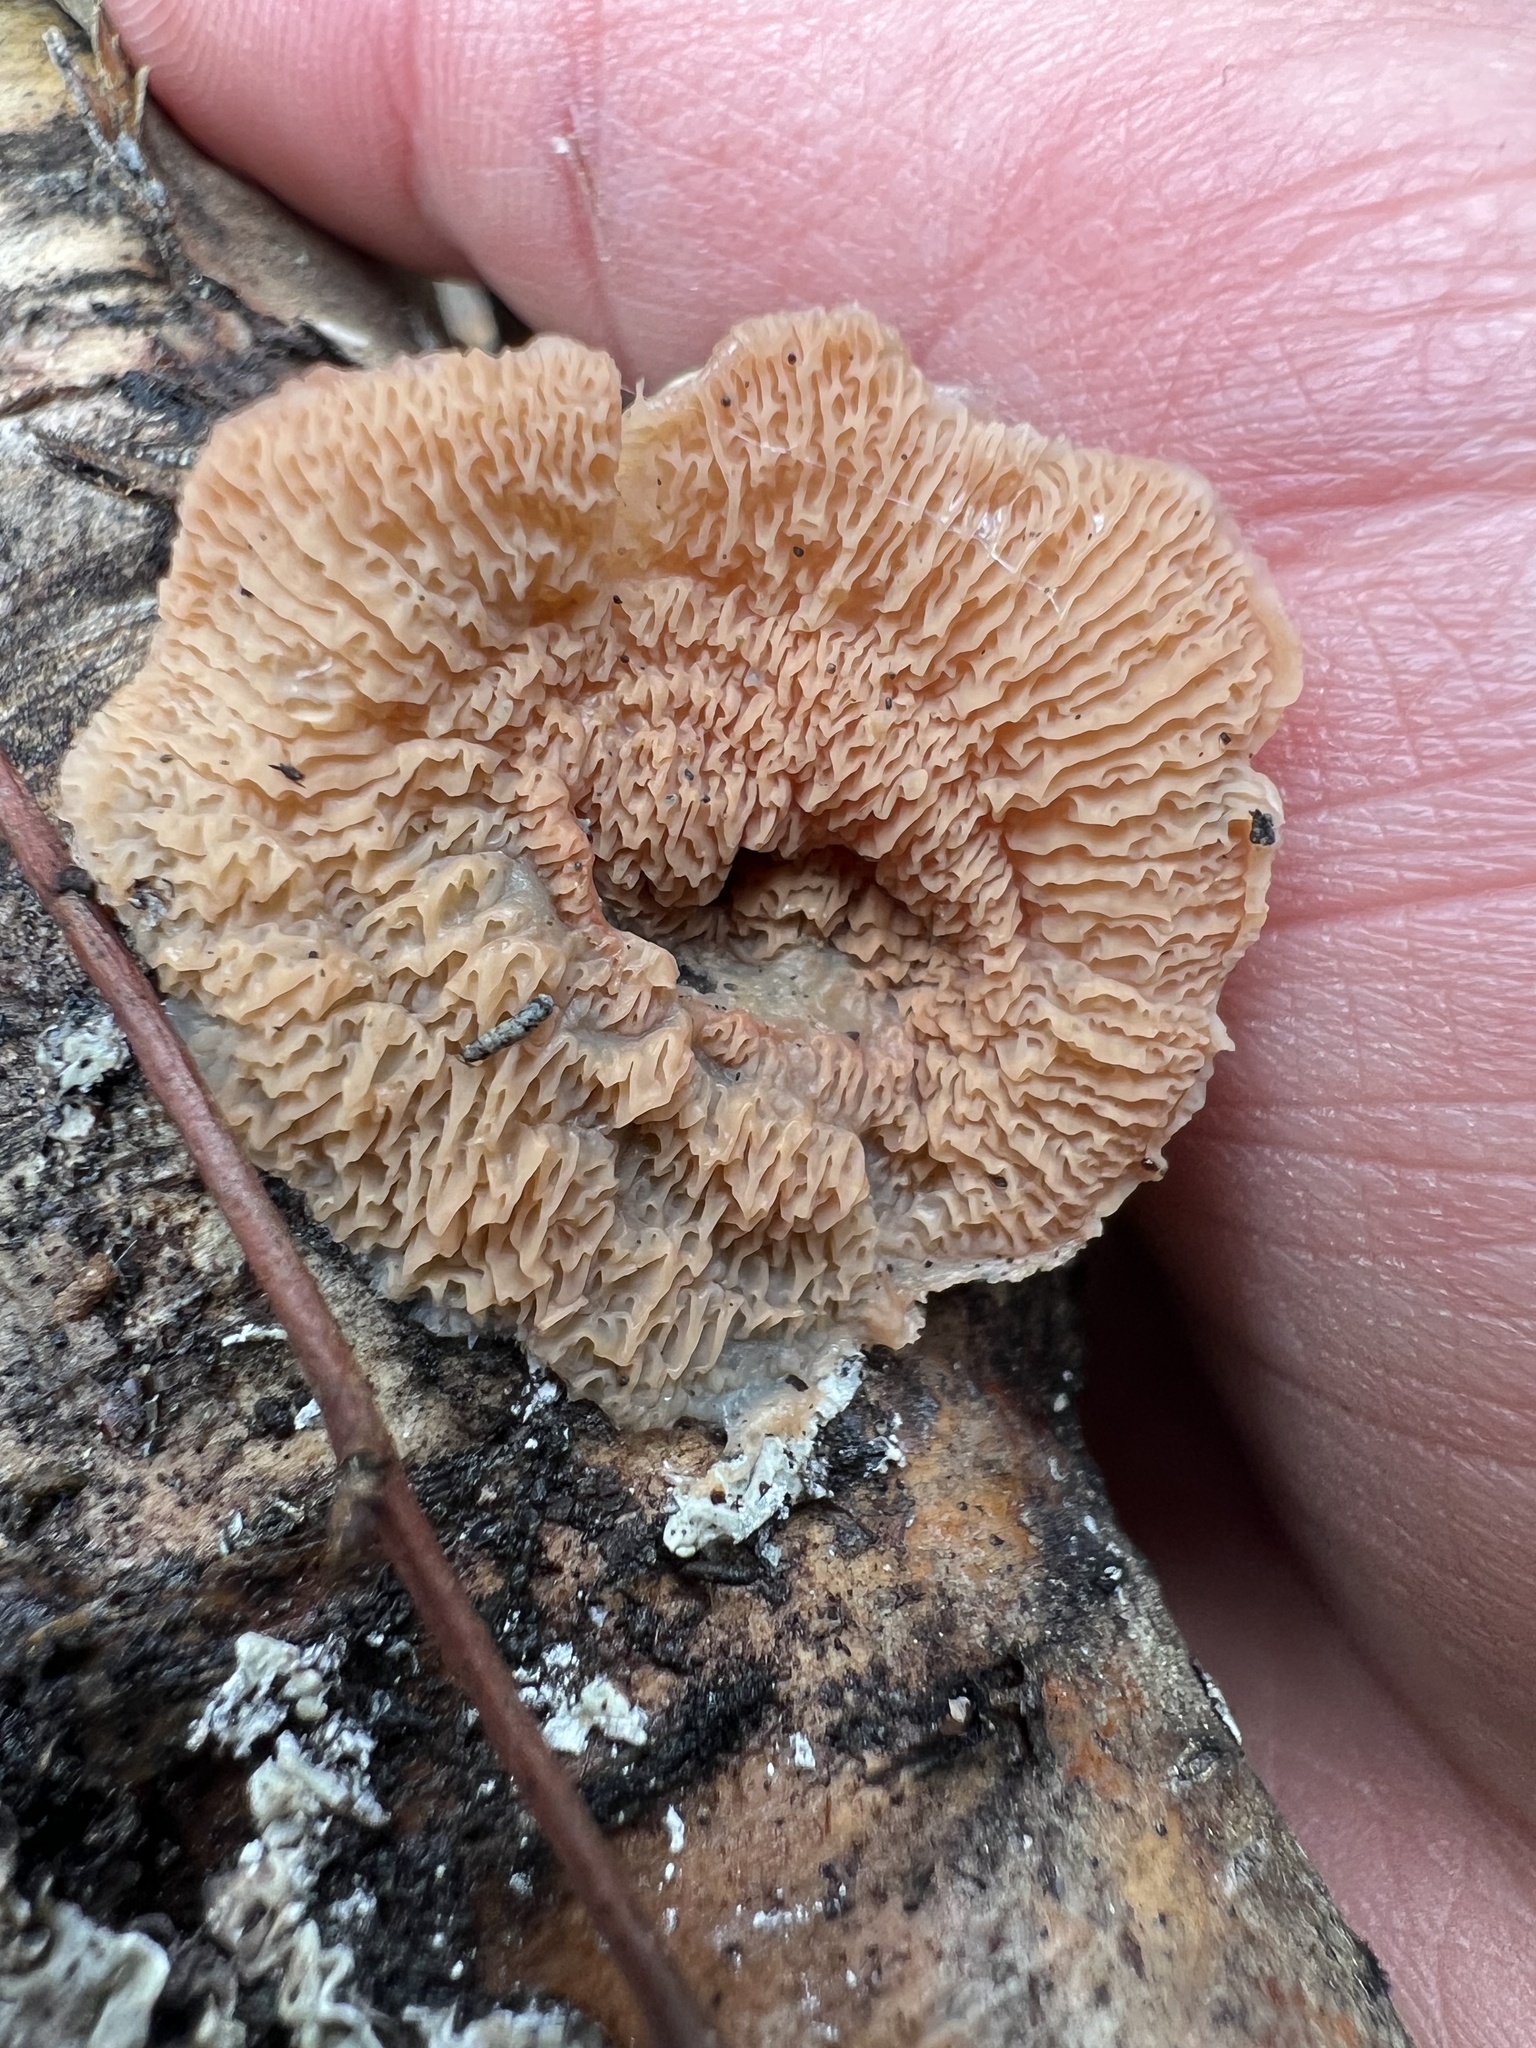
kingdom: Fungi
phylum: Basidiomycota
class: Agaricomycetes
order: Polyporales
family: Meruliaceae
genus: Phlebia
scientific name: Phlebia tremellosa
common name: Jelly rot
